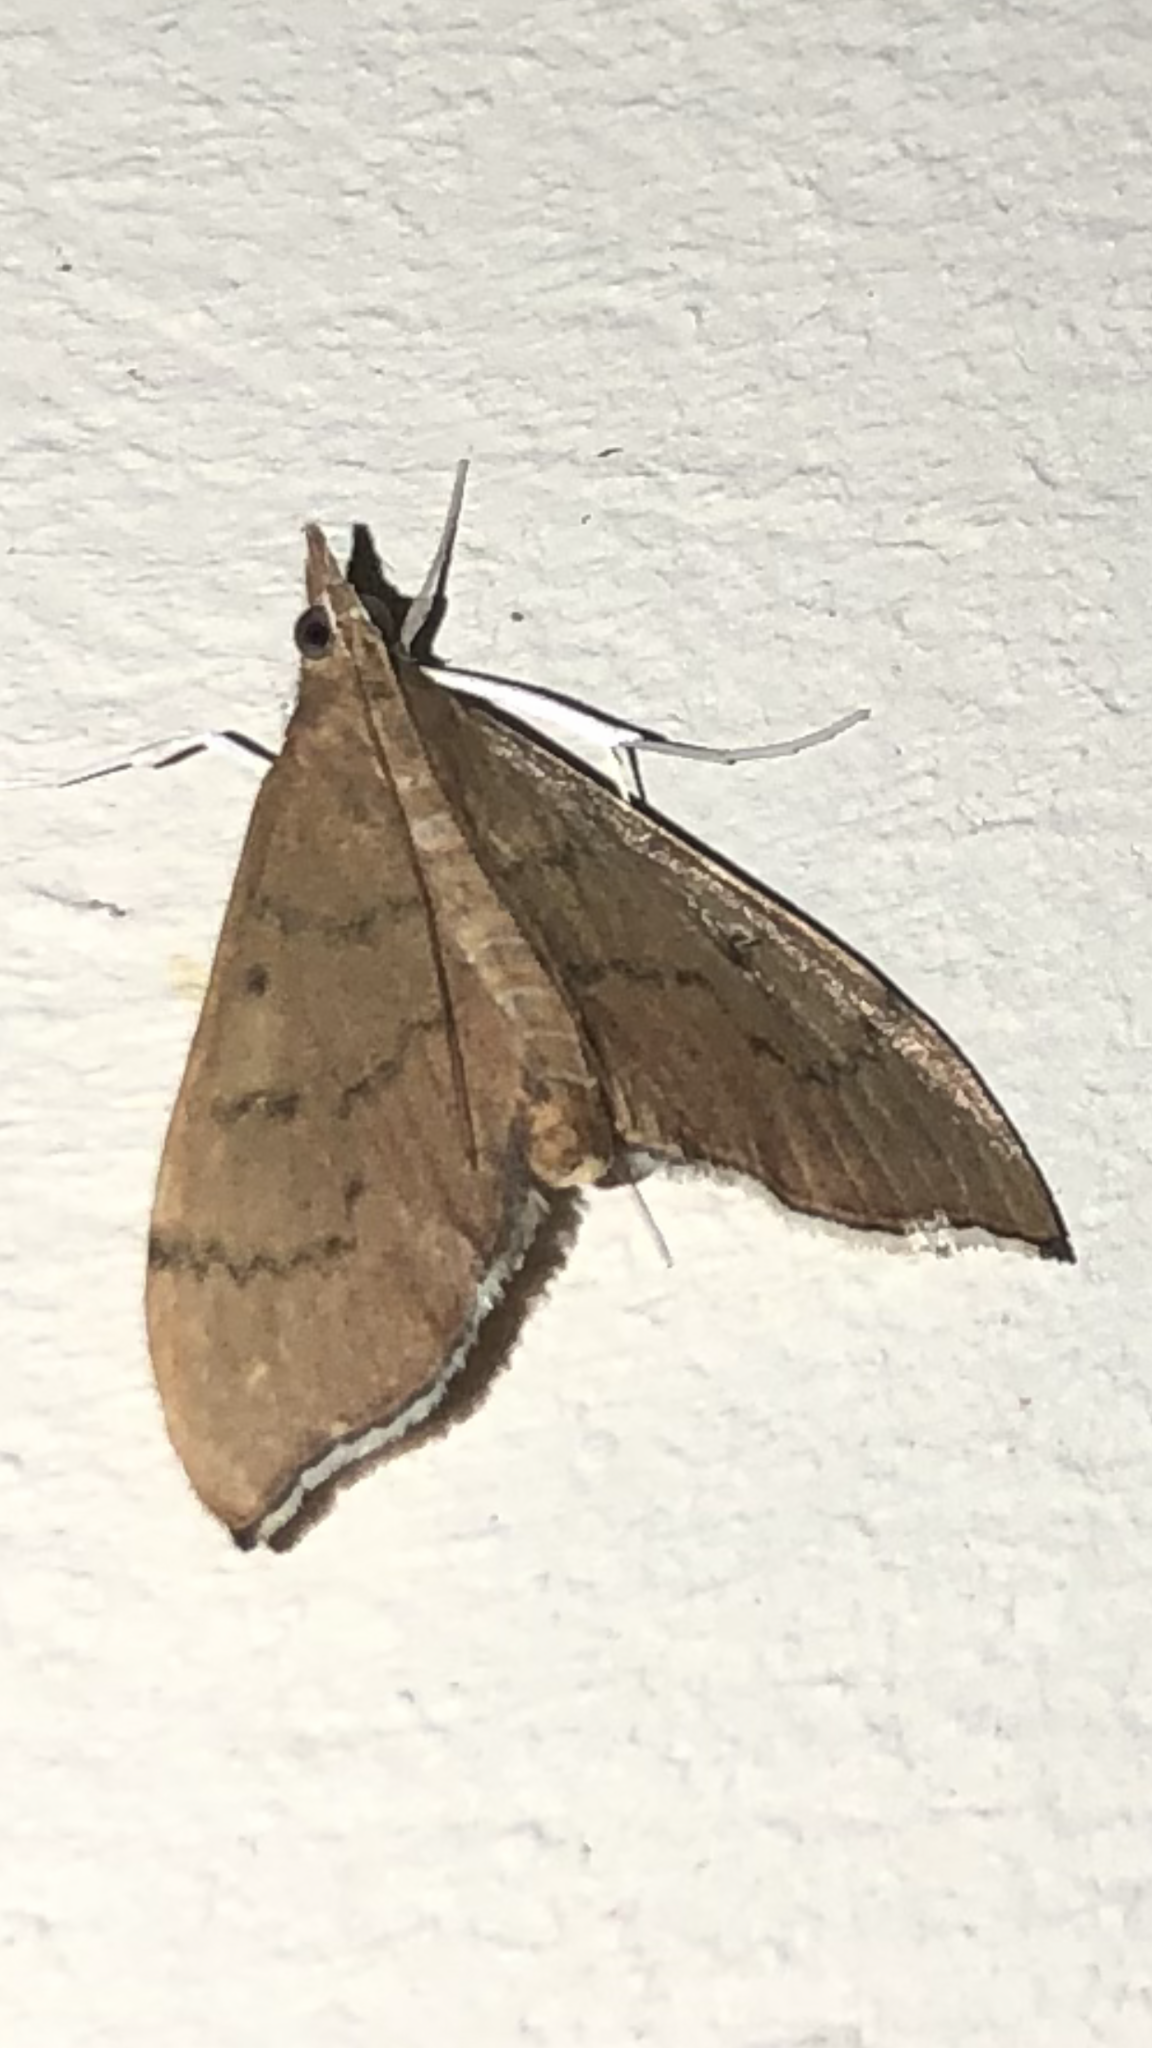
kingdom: Animalia
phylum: Arthropoda
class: Insecta
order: Lepidoptera
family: Crambidae
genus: Sericoplaga
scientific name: Sericoplaga externalis
